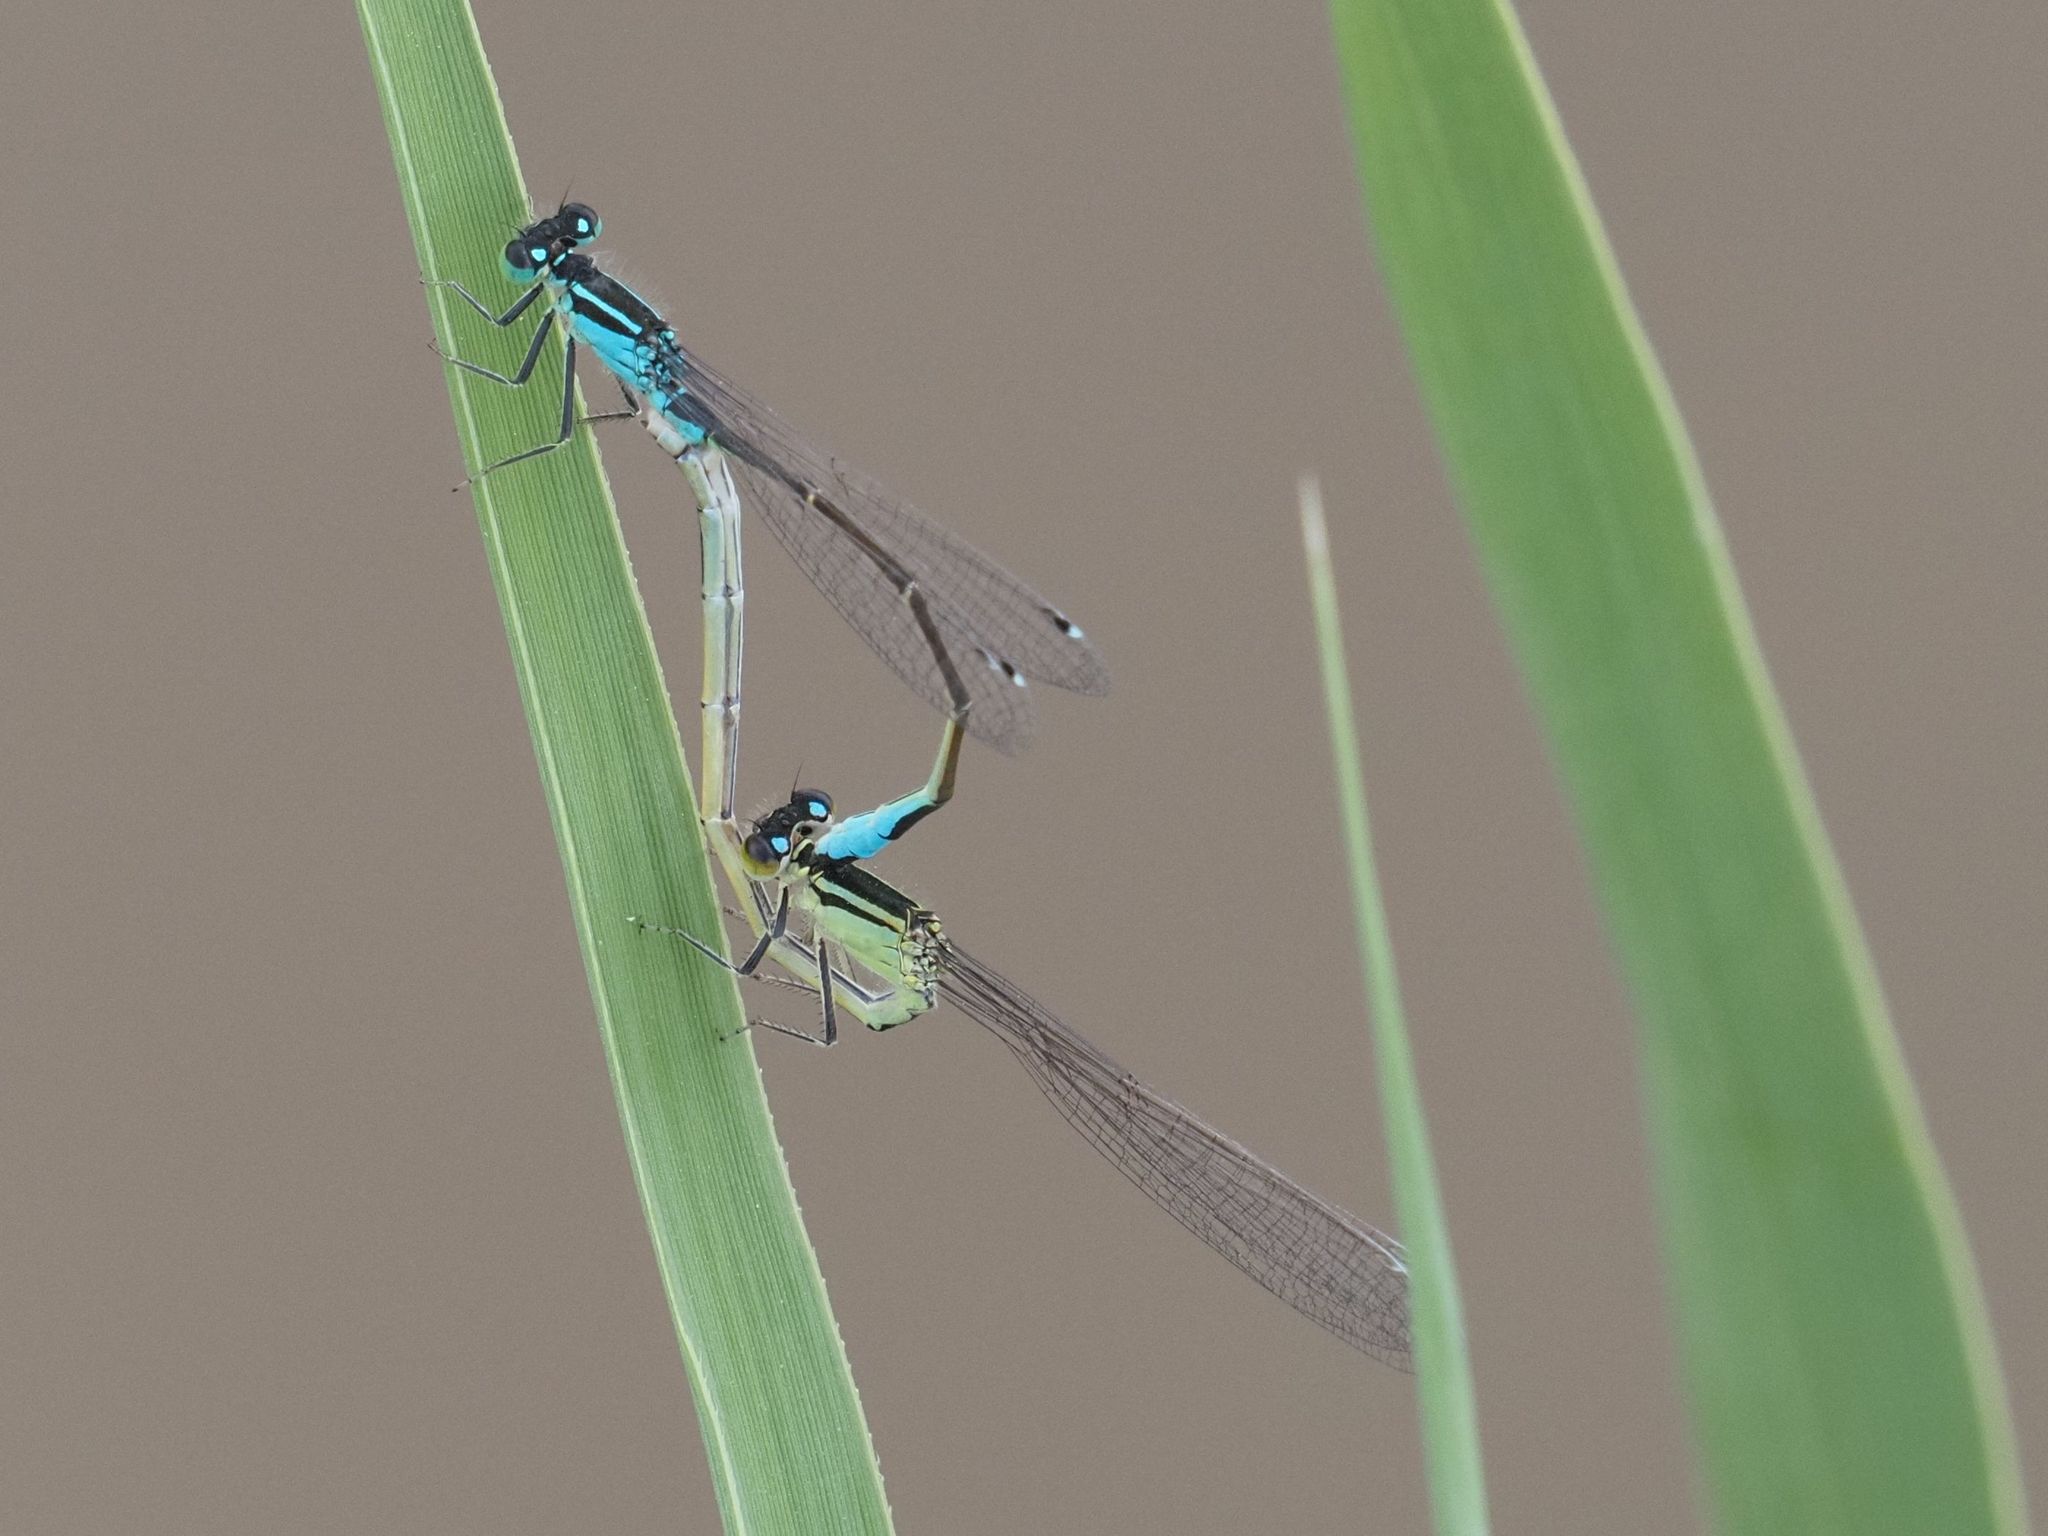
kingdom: Animalia
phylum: Arthropoda
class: Insecta
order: Odonata
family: Coenagrionidae
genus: Ischnura
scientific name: Ischnura elegans
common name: Blue-tailed damselfly
